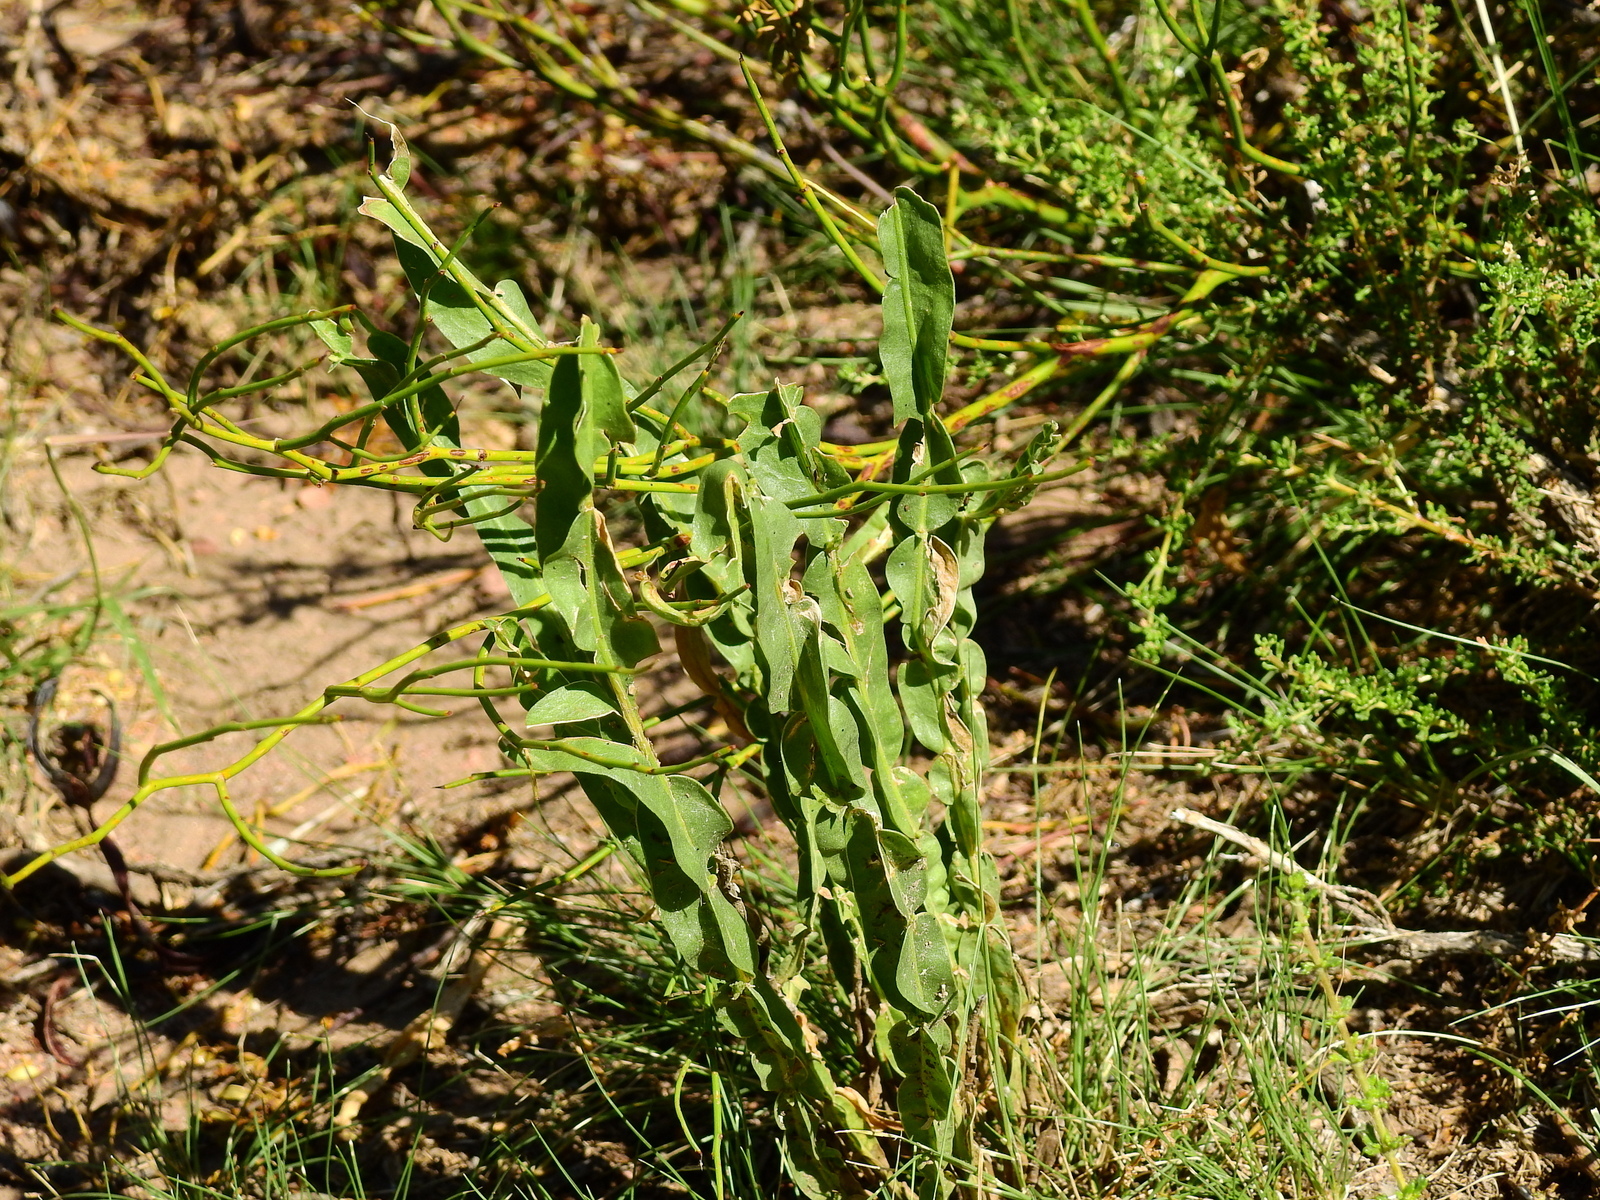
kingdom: Plantae
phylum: Tracheophyta
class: Magnoliopsida
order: Asterales
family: Asteraceae
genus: Baccharis
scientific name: Baccharis crispa
